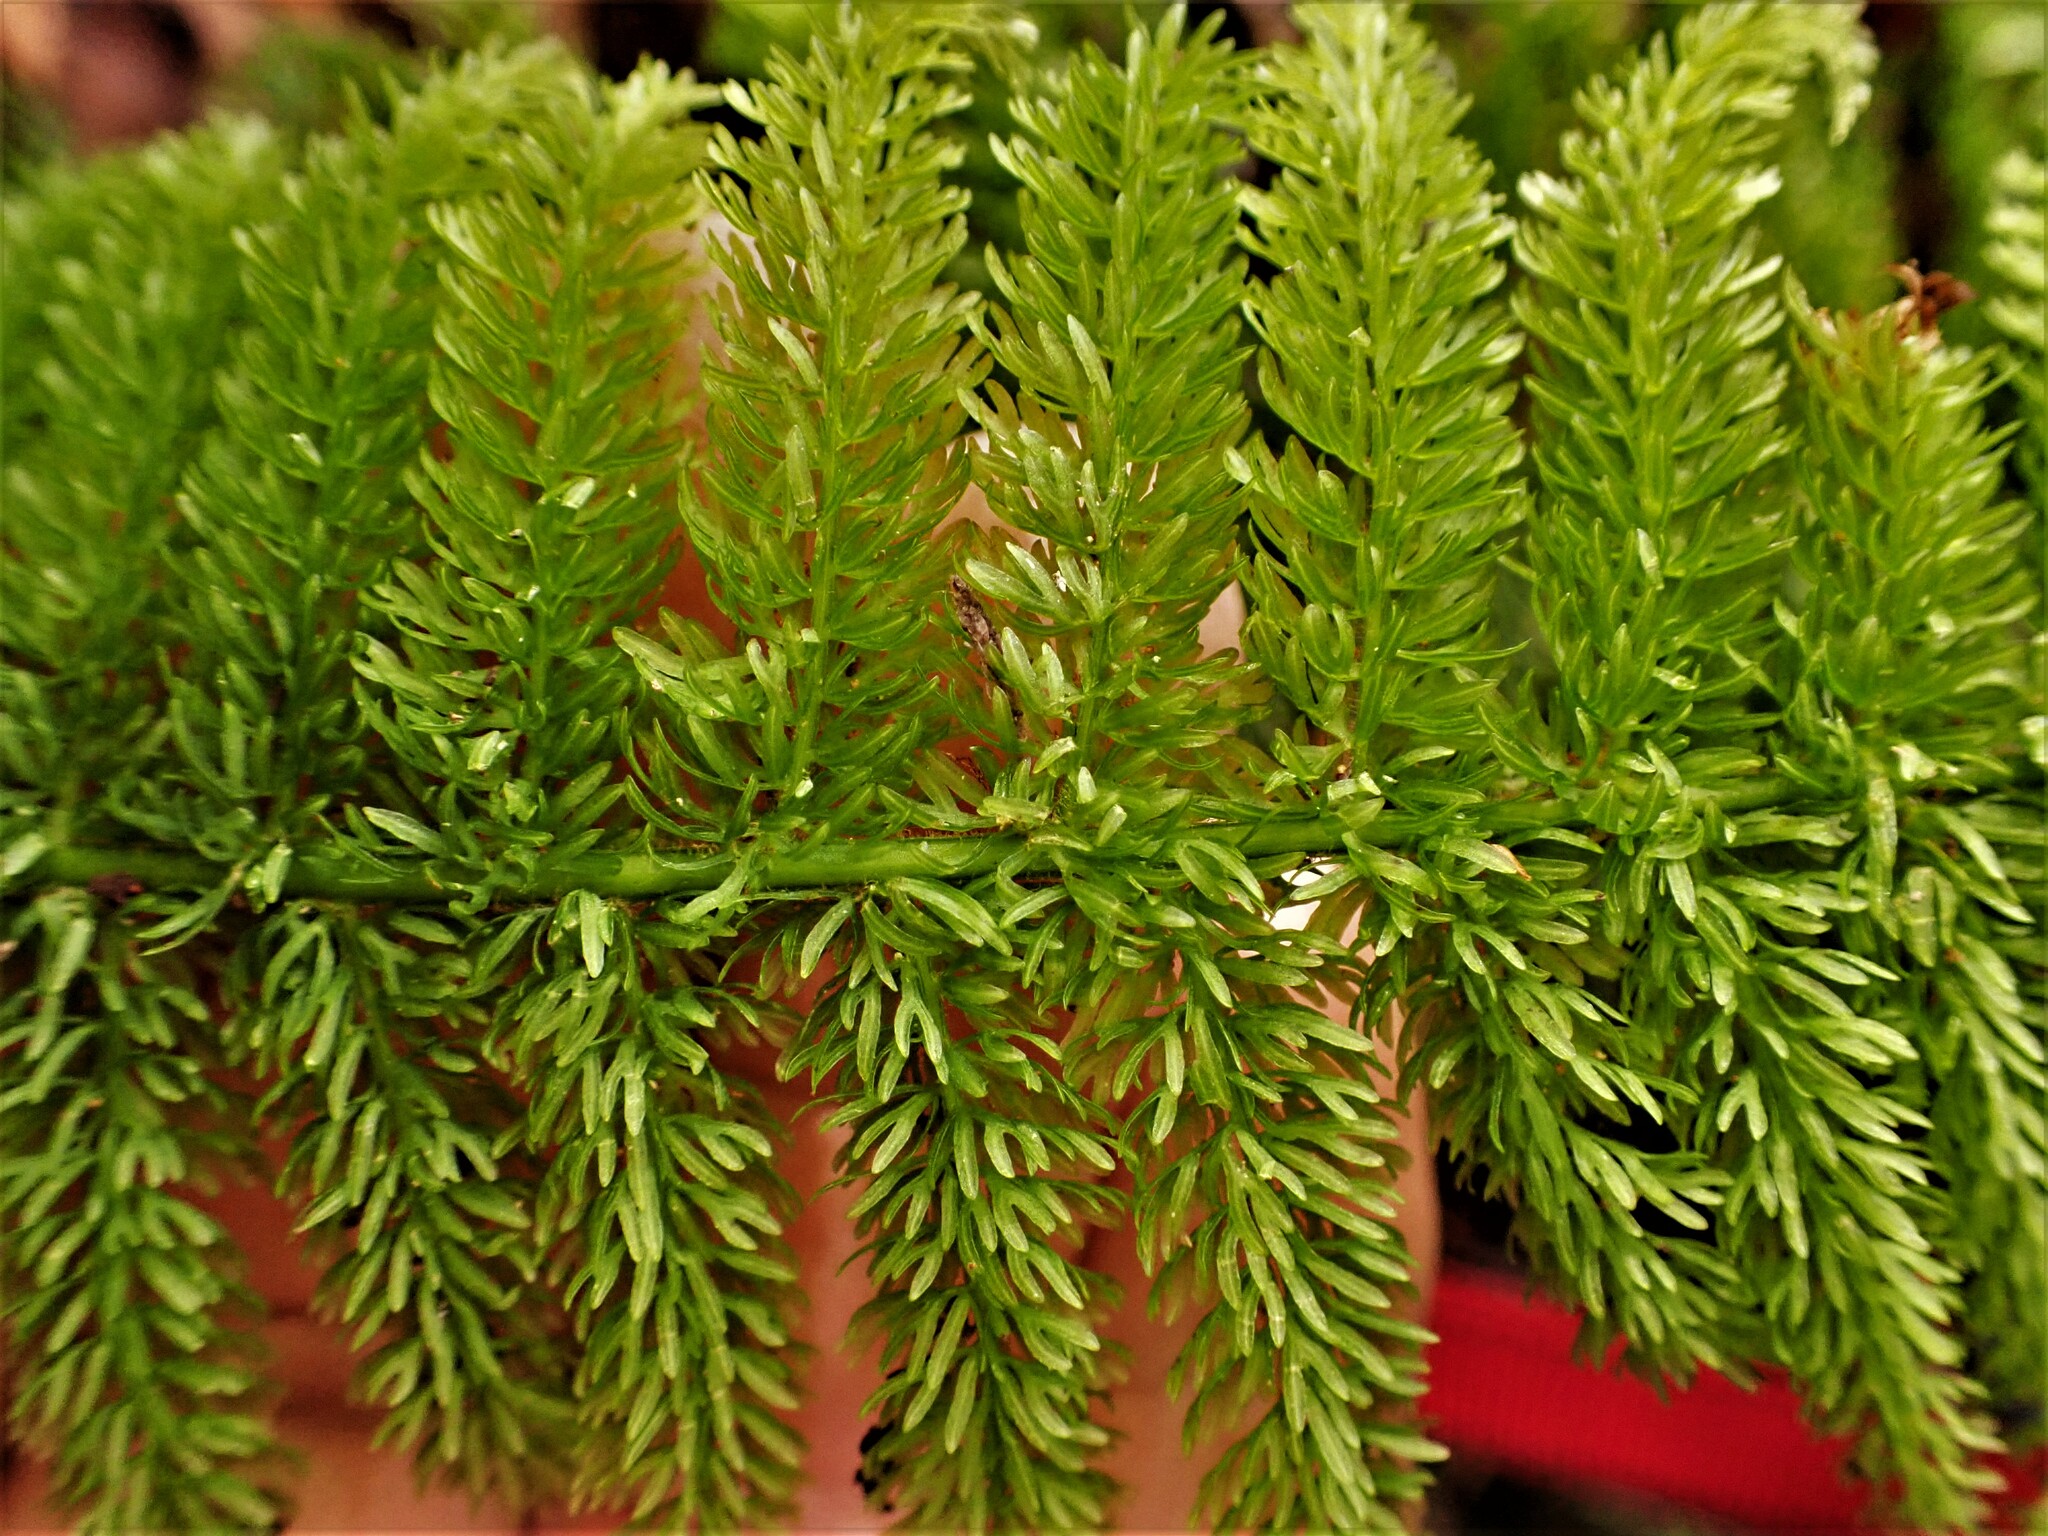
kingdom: Plantae
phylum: Tracheophyta
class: Polypodiopsida
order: Osmundales
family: Osmundaceae
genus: Leptopteris
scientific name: Leptopteris superba
